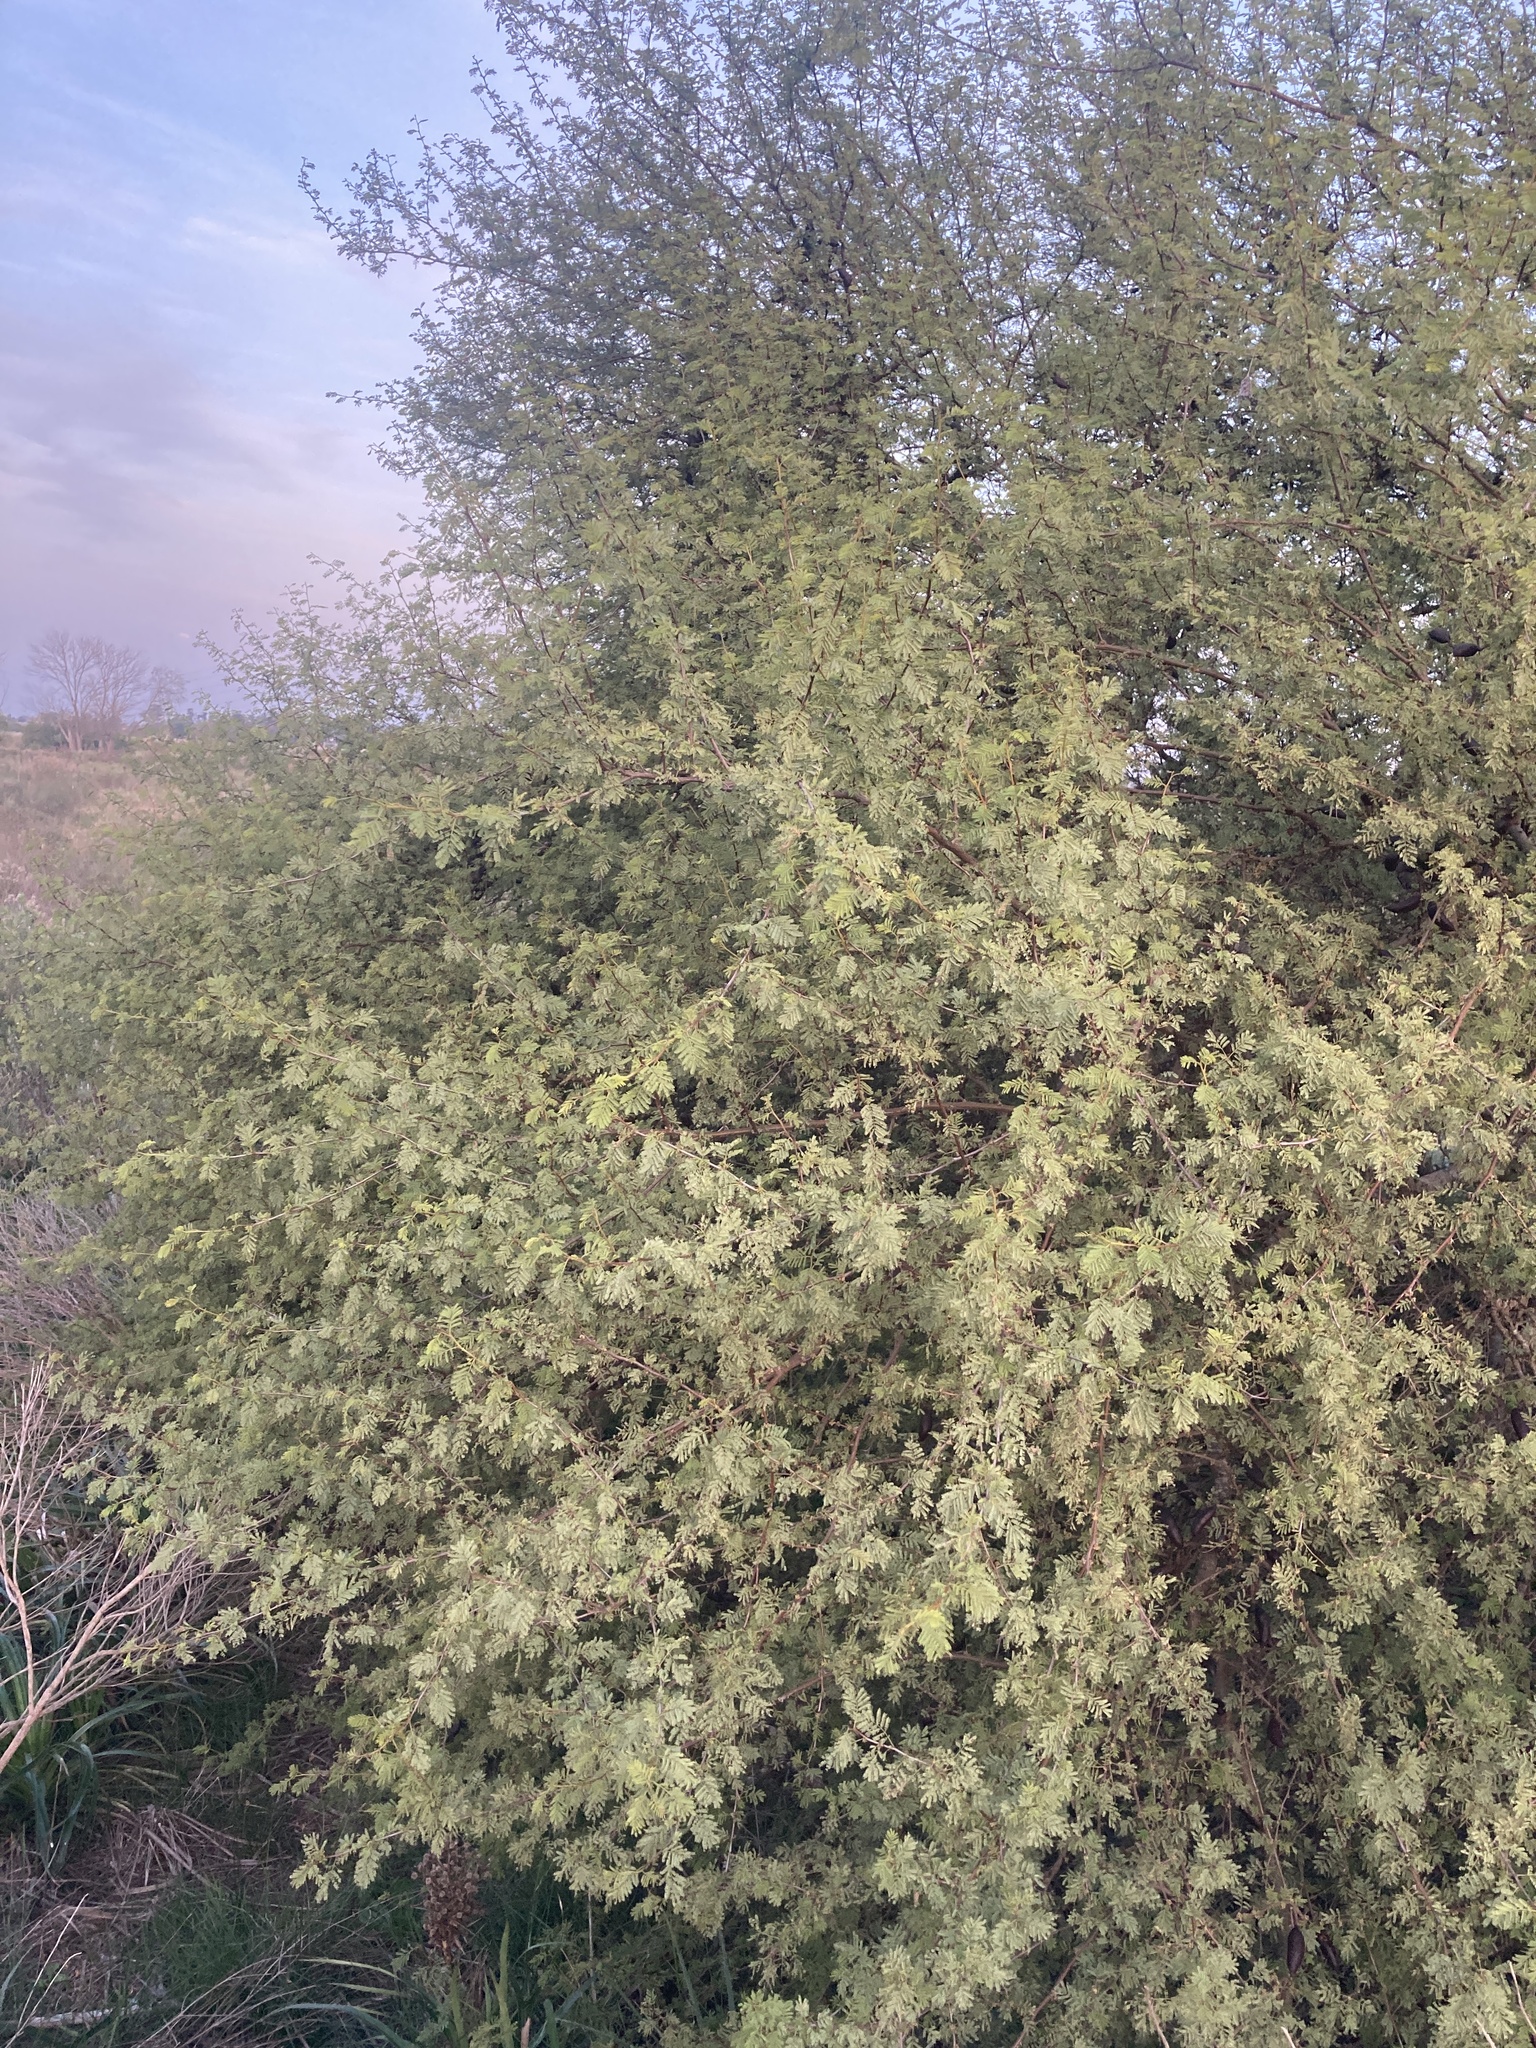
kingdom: Plantae
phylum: Tracheophyta
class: Magnoliopsida
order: Fabales
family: Fabaceae
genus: Vachellia
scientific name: Vachellia caven
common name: Roman cassie
